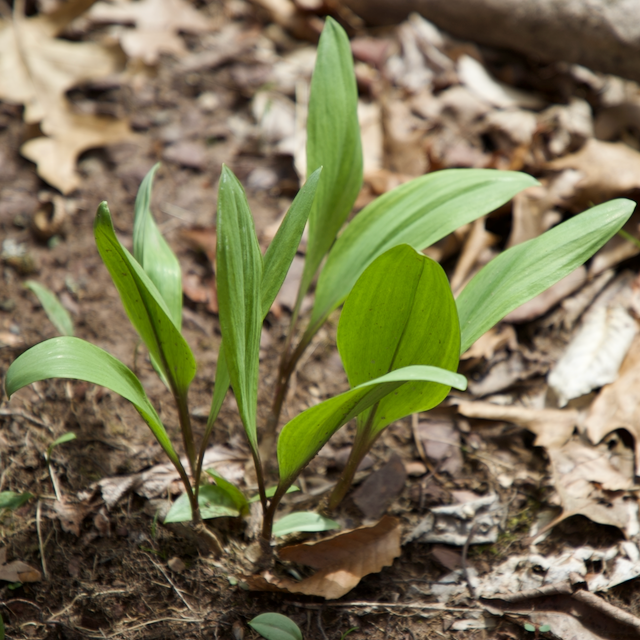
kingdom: Plantae
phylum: Tracheophyta
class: Liliopsida
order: Asparagales
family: Amaryllidaceae
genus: Allium
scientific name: Allium tricoccum
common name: Ramp
